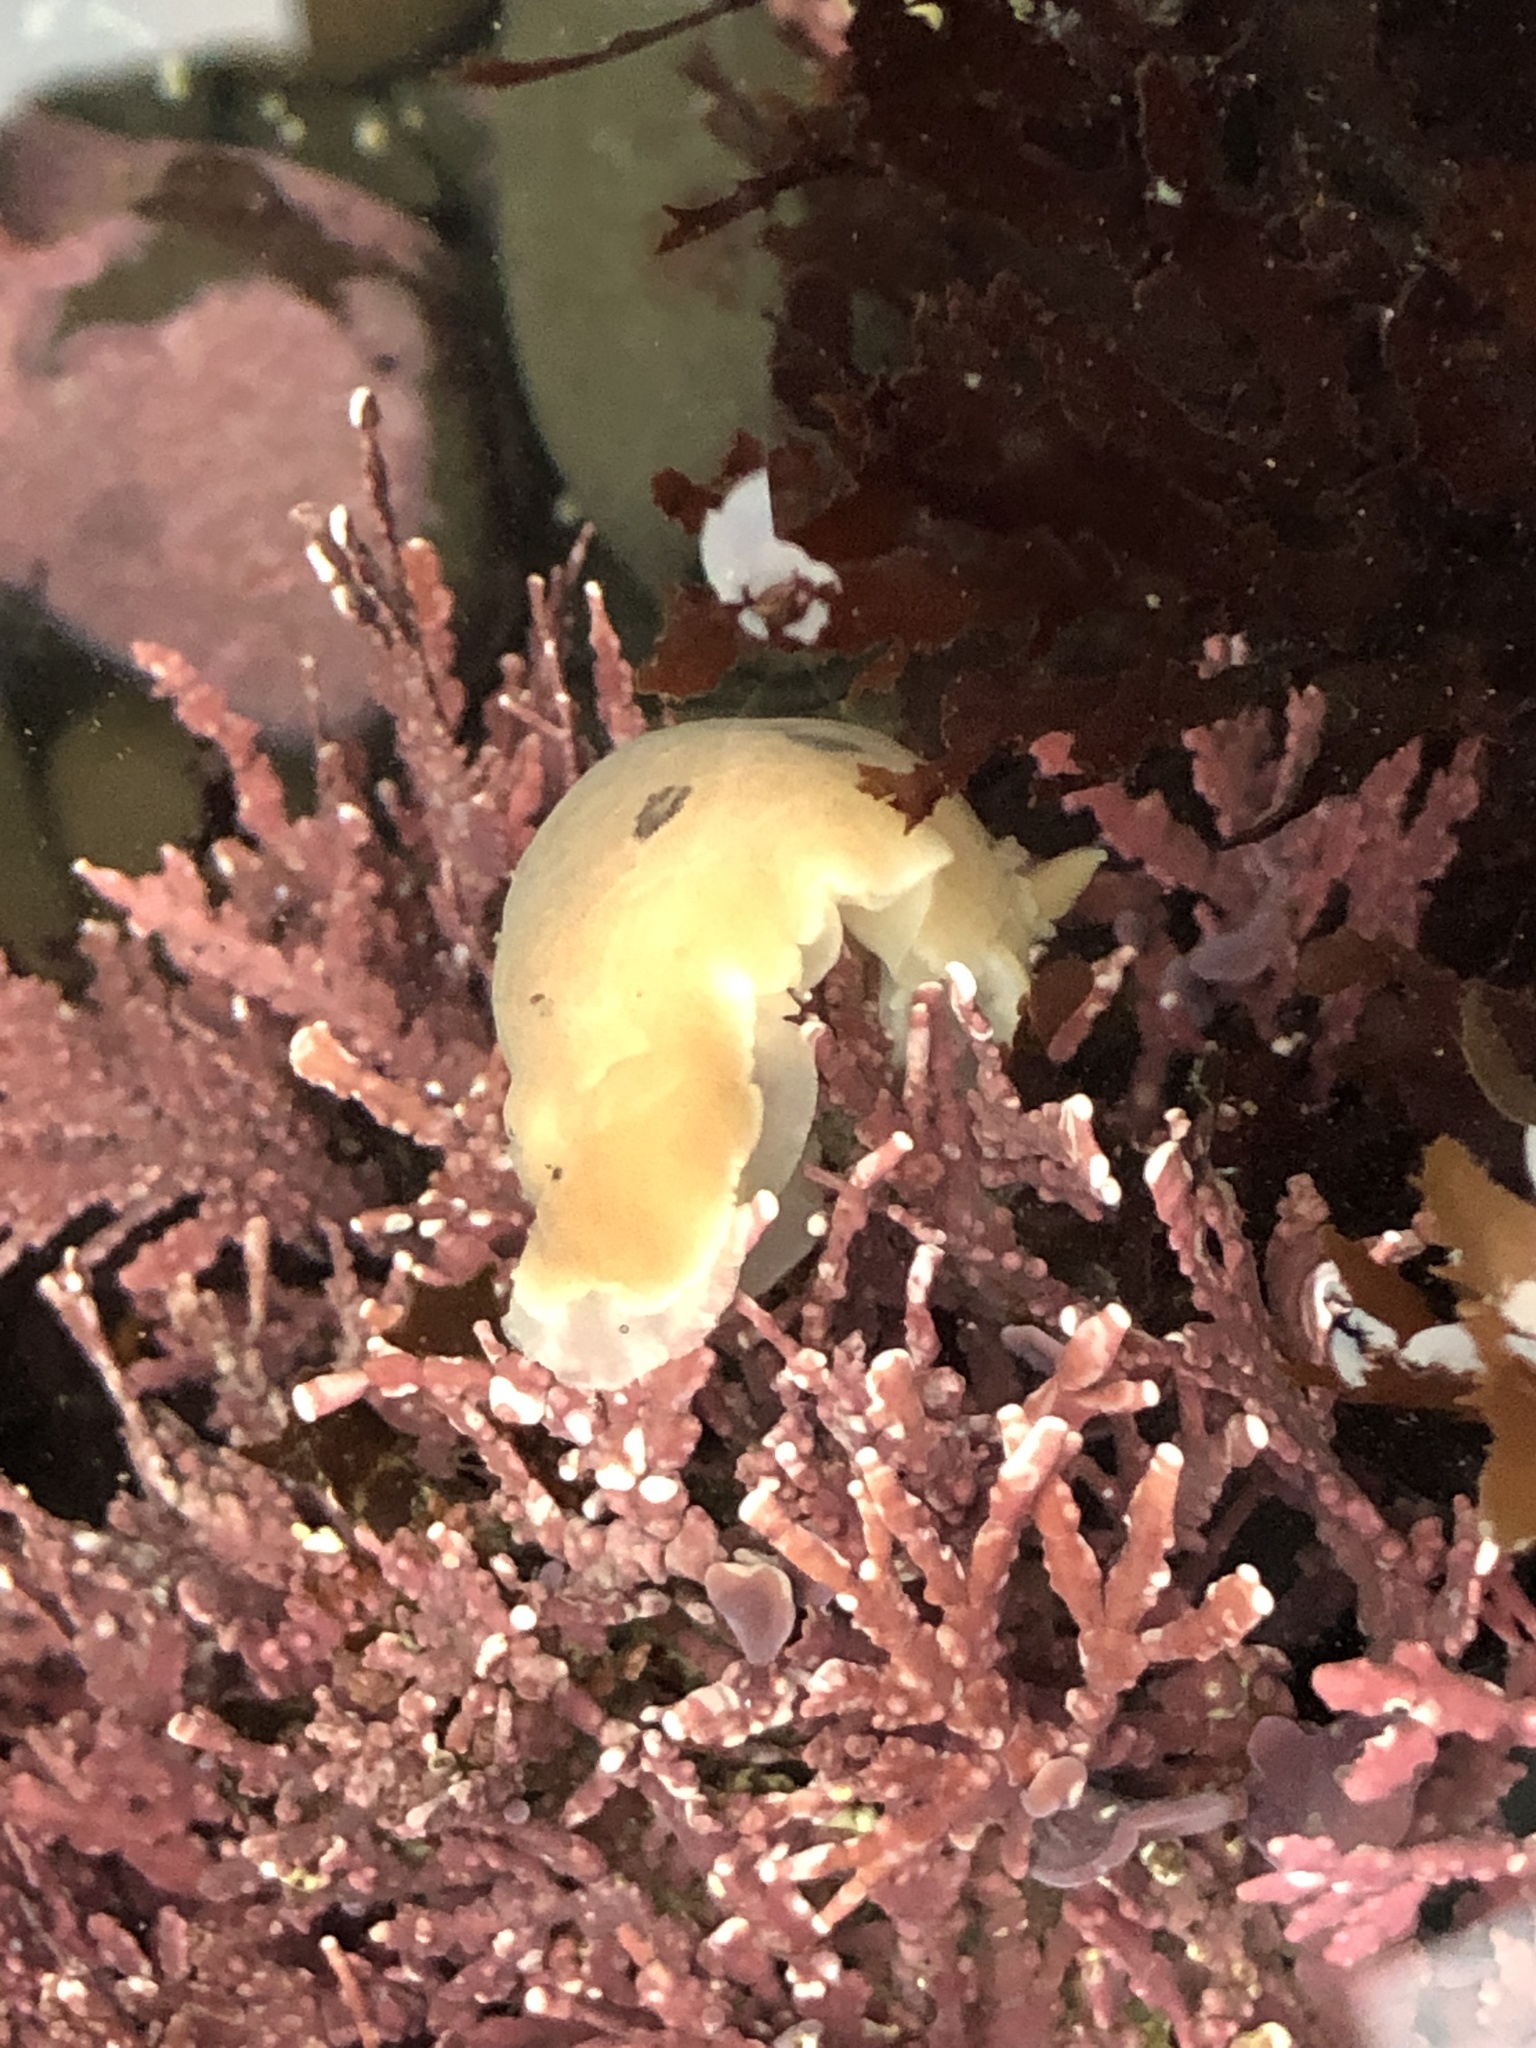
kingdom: Animalia
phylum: Mollusca
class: Gastropoda
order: Nudibranchia
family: Discodorididae
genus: Diaulula
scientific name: Diaulula sandiegensis
